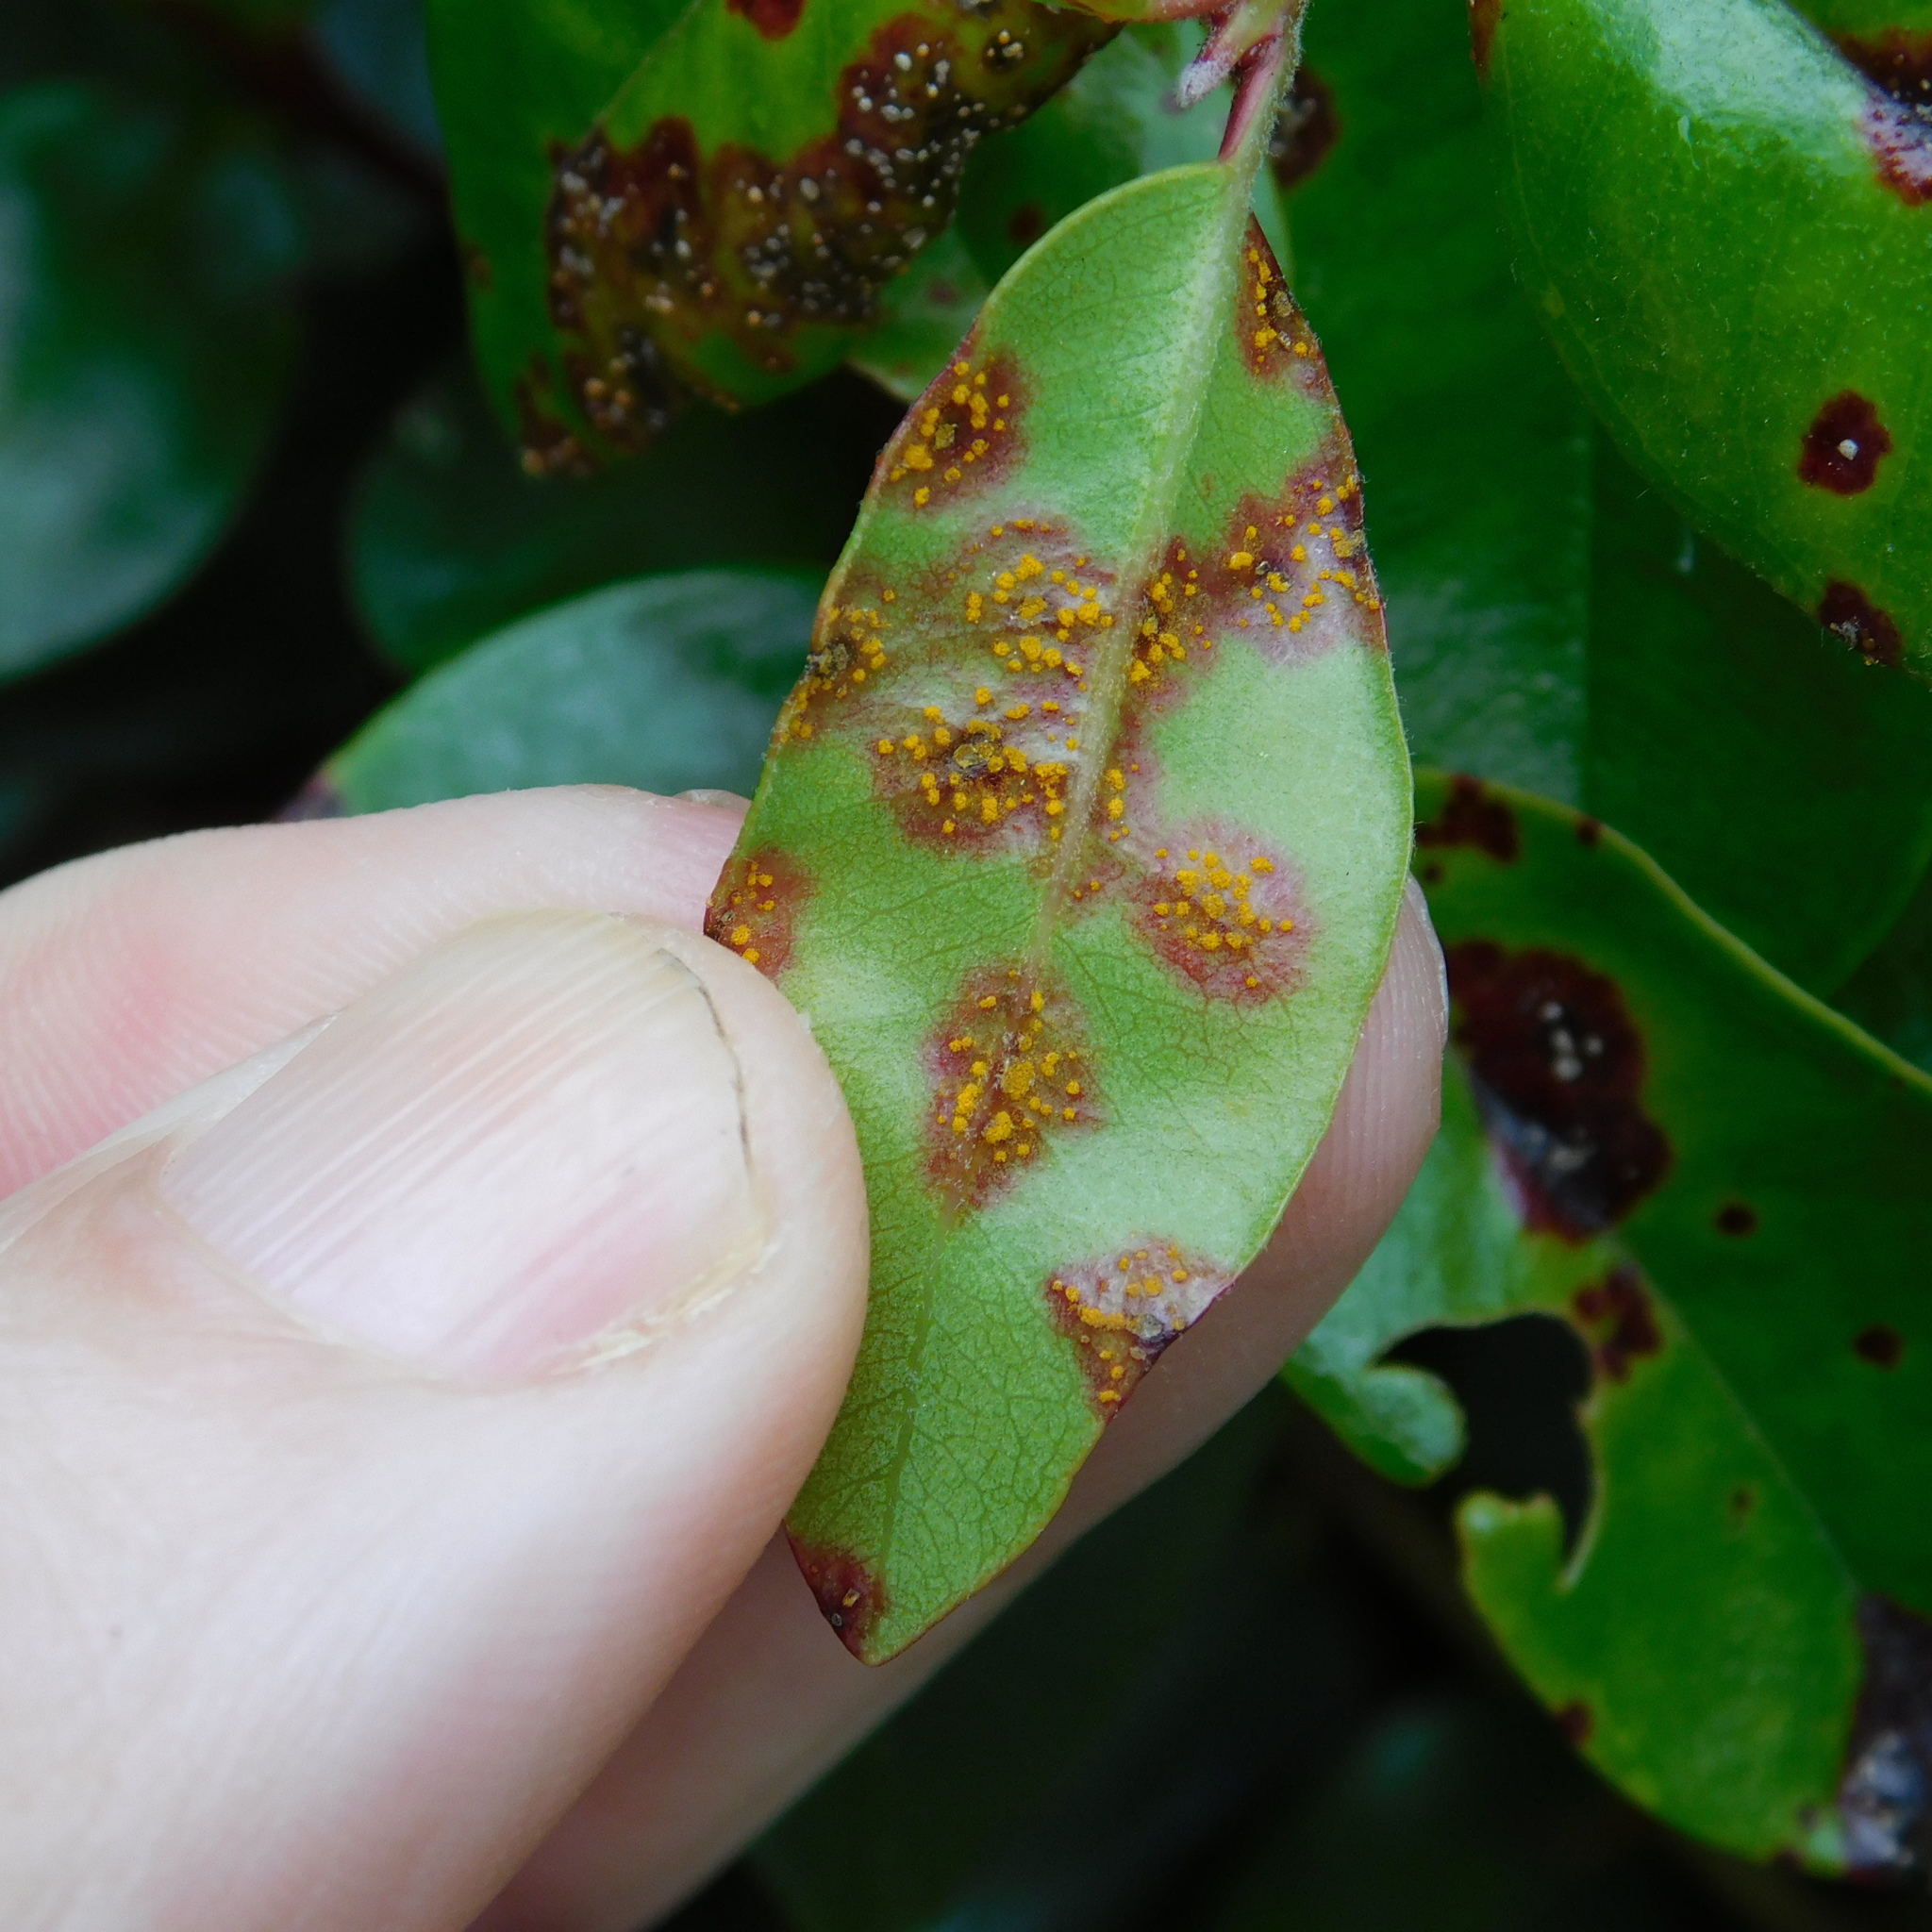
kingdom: Fungi
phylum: Basidiomycota
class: Pucciniomycetes
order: Pucciniales
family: Sphaerophragmiaceae
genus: Austropuccinia
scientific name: Austropuccinia psidii
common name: Myrtle rust
